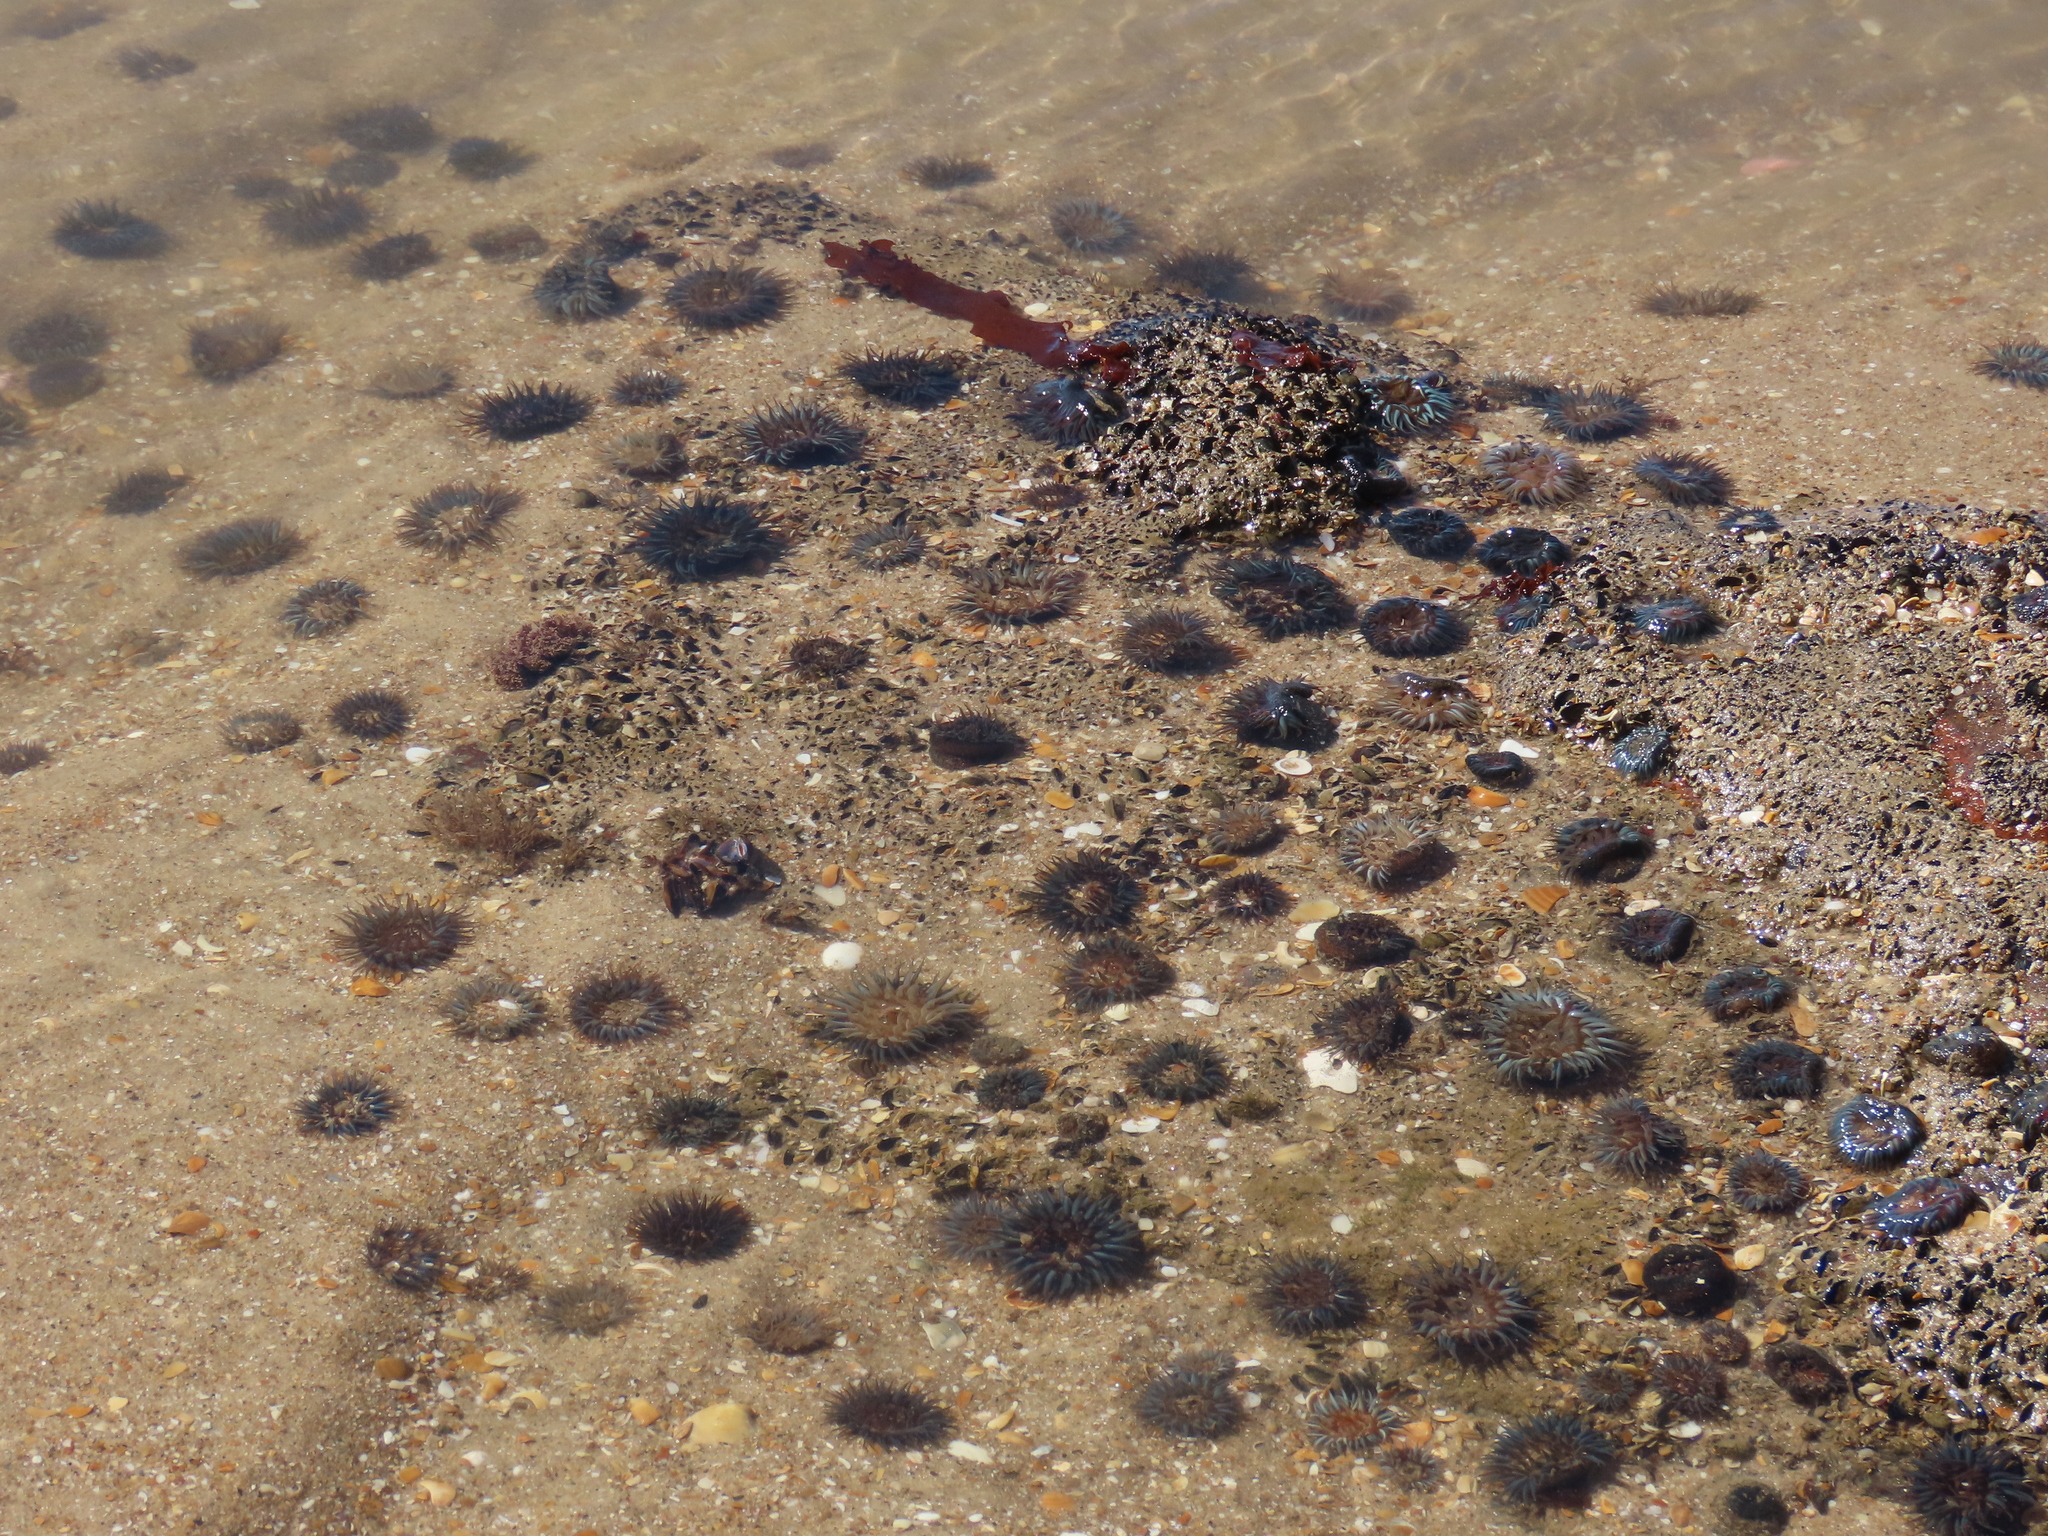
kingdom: Animalia
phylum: Cnidaria
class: Anthozoa
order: Actiniaria
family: Actiniidae
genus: Bunodosoma
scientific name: Bunodosoma cangicum
